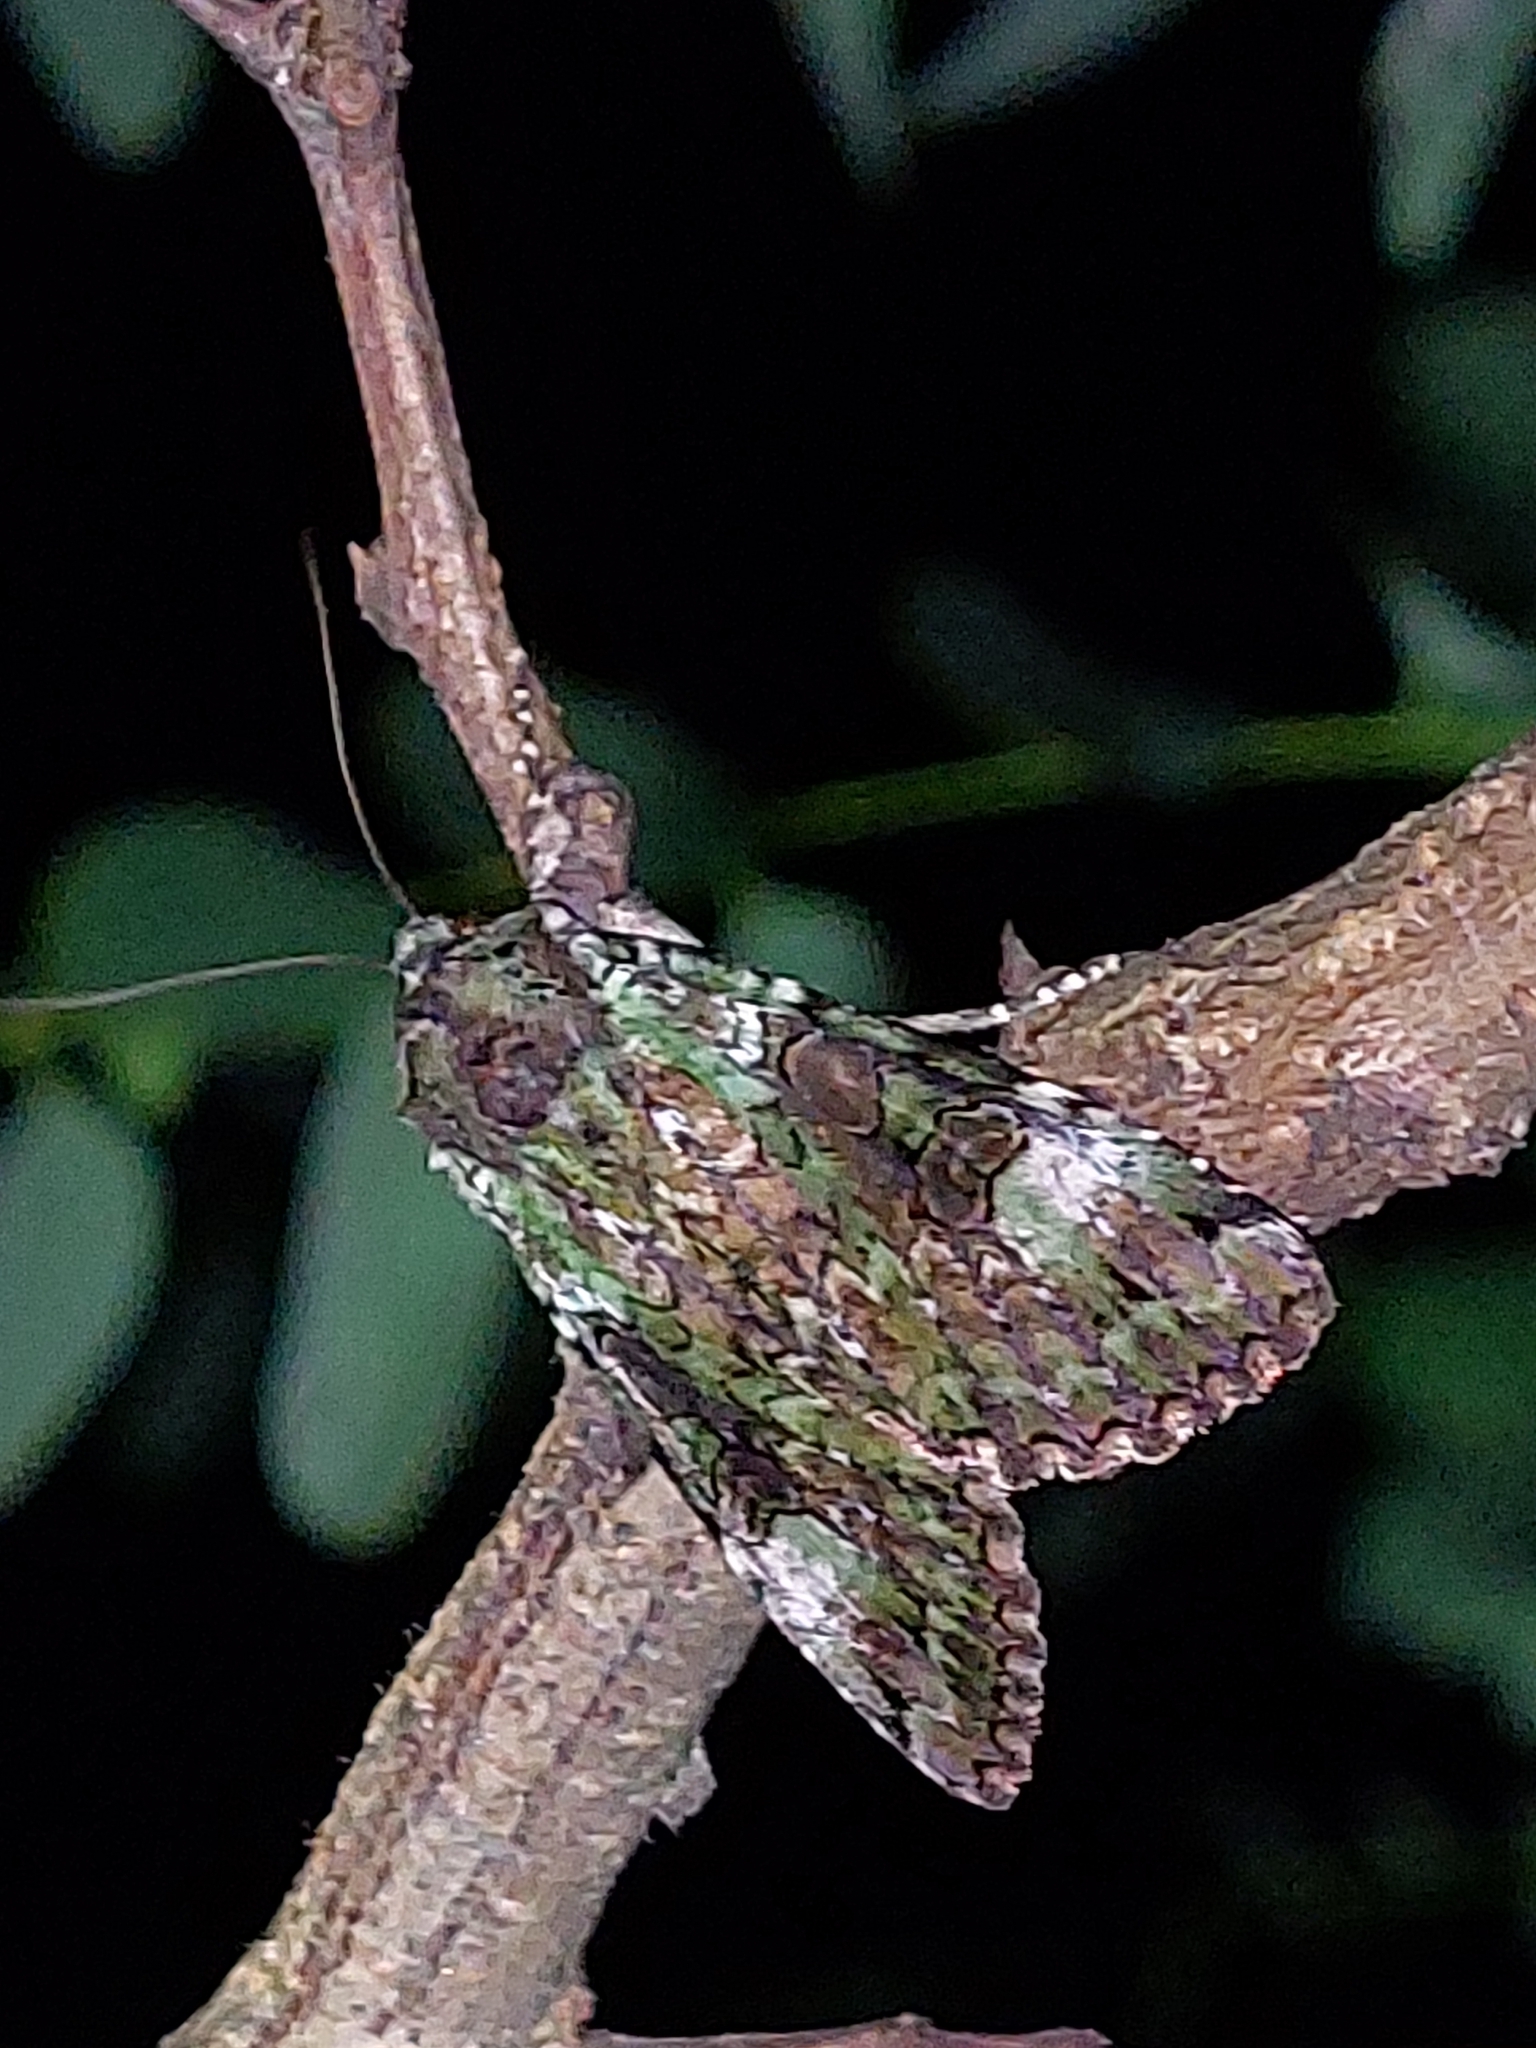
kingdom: Animalia
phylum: Arthropoda
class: Insecta
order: Lepidoptera
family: Noctuidae
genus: Anaplectoides
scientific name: Anaplectoides prasina
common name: Green arches
